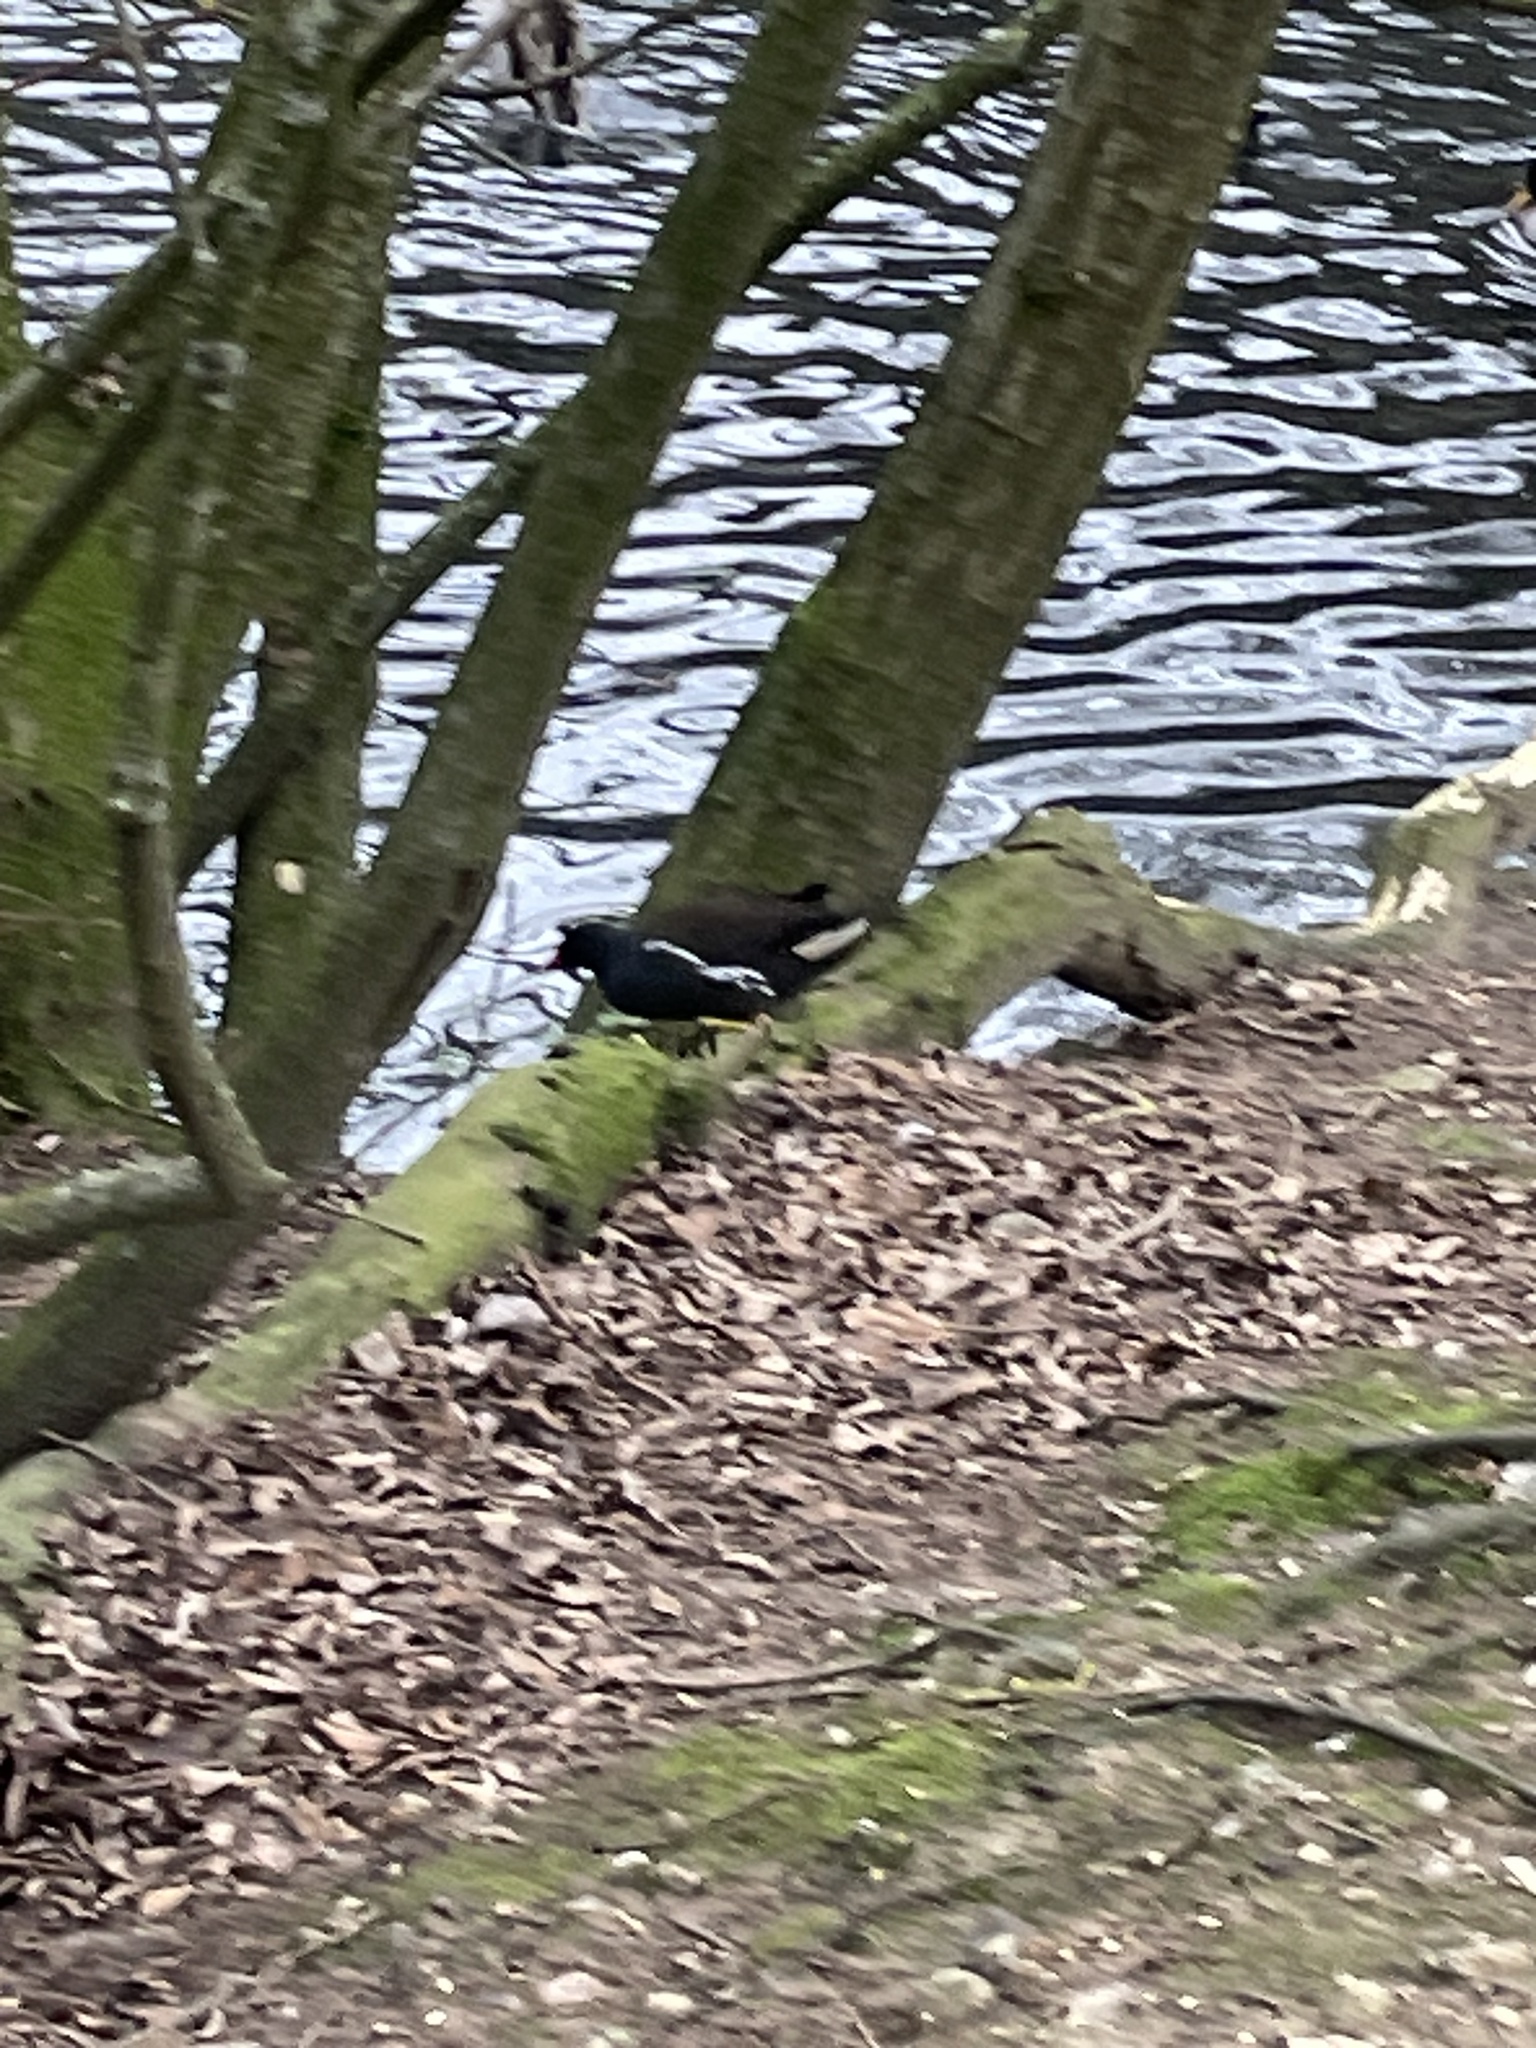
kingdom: Animalia
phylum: Chordata
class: Aves
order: Gruiformes
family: Rallidae
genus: Gallinula
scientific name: Gallinula chloropus
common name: Common moorhen
